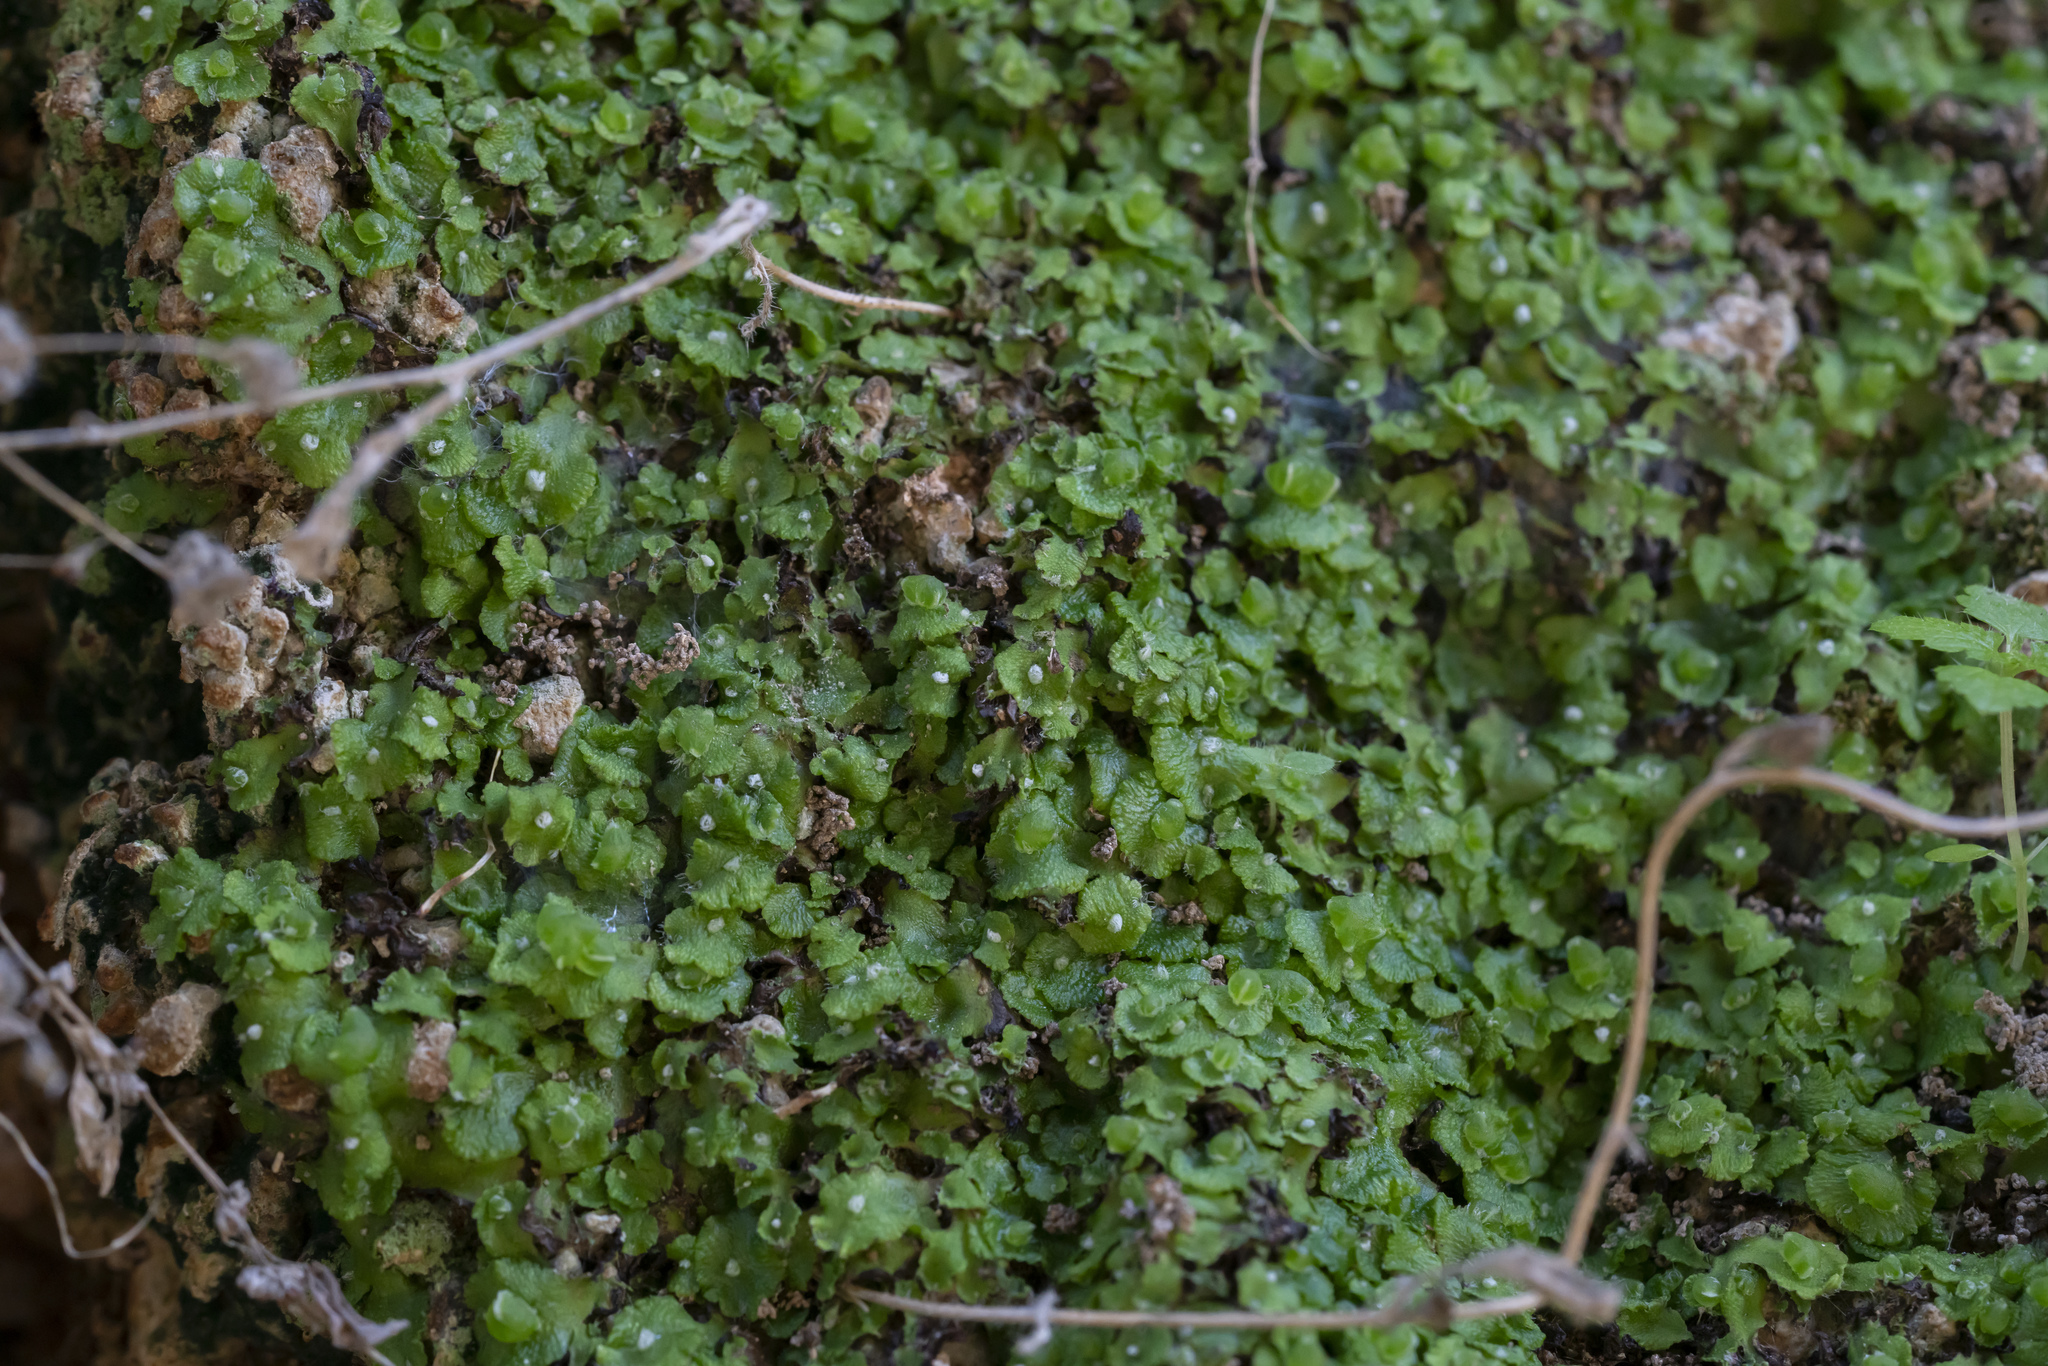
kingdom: Plantae
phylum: Marchantiophyta
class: Marchantiopsida
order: Marchantiales
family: Cleveaceae
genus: Clevea
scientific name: Clevea spathysii
